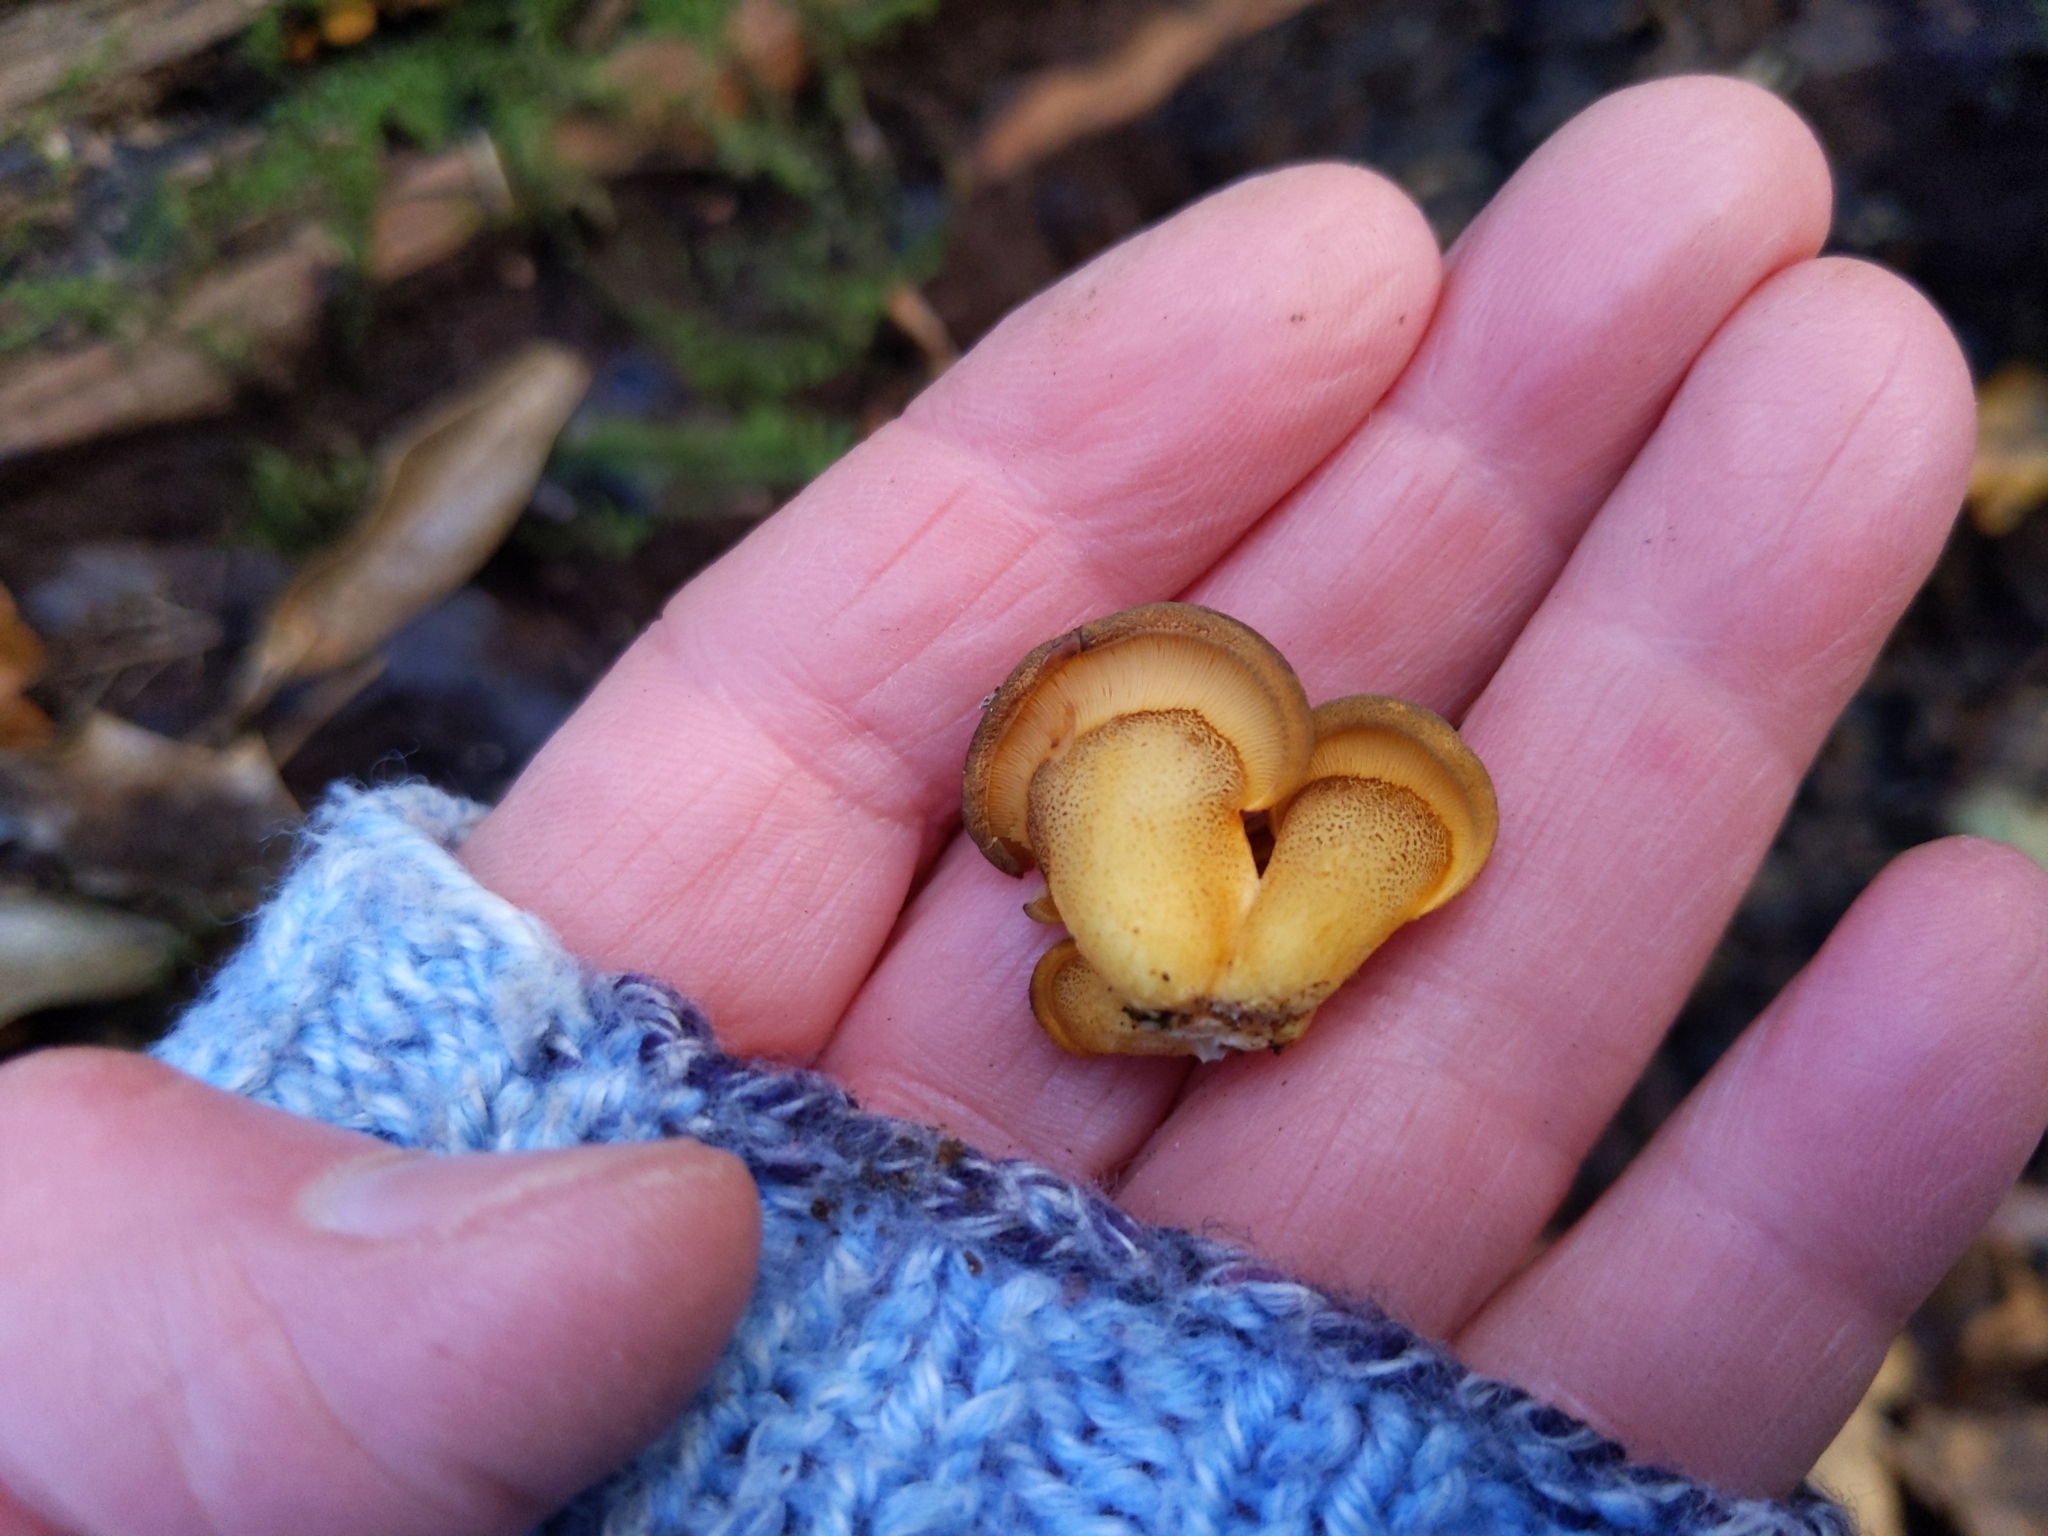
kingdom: Fungi
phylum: Basidiomycota
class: Agaricomycetes
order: Agaricales
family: Sarcomyxaceae
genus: Sarcomyxa
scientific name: Sarcomyxa serotina
